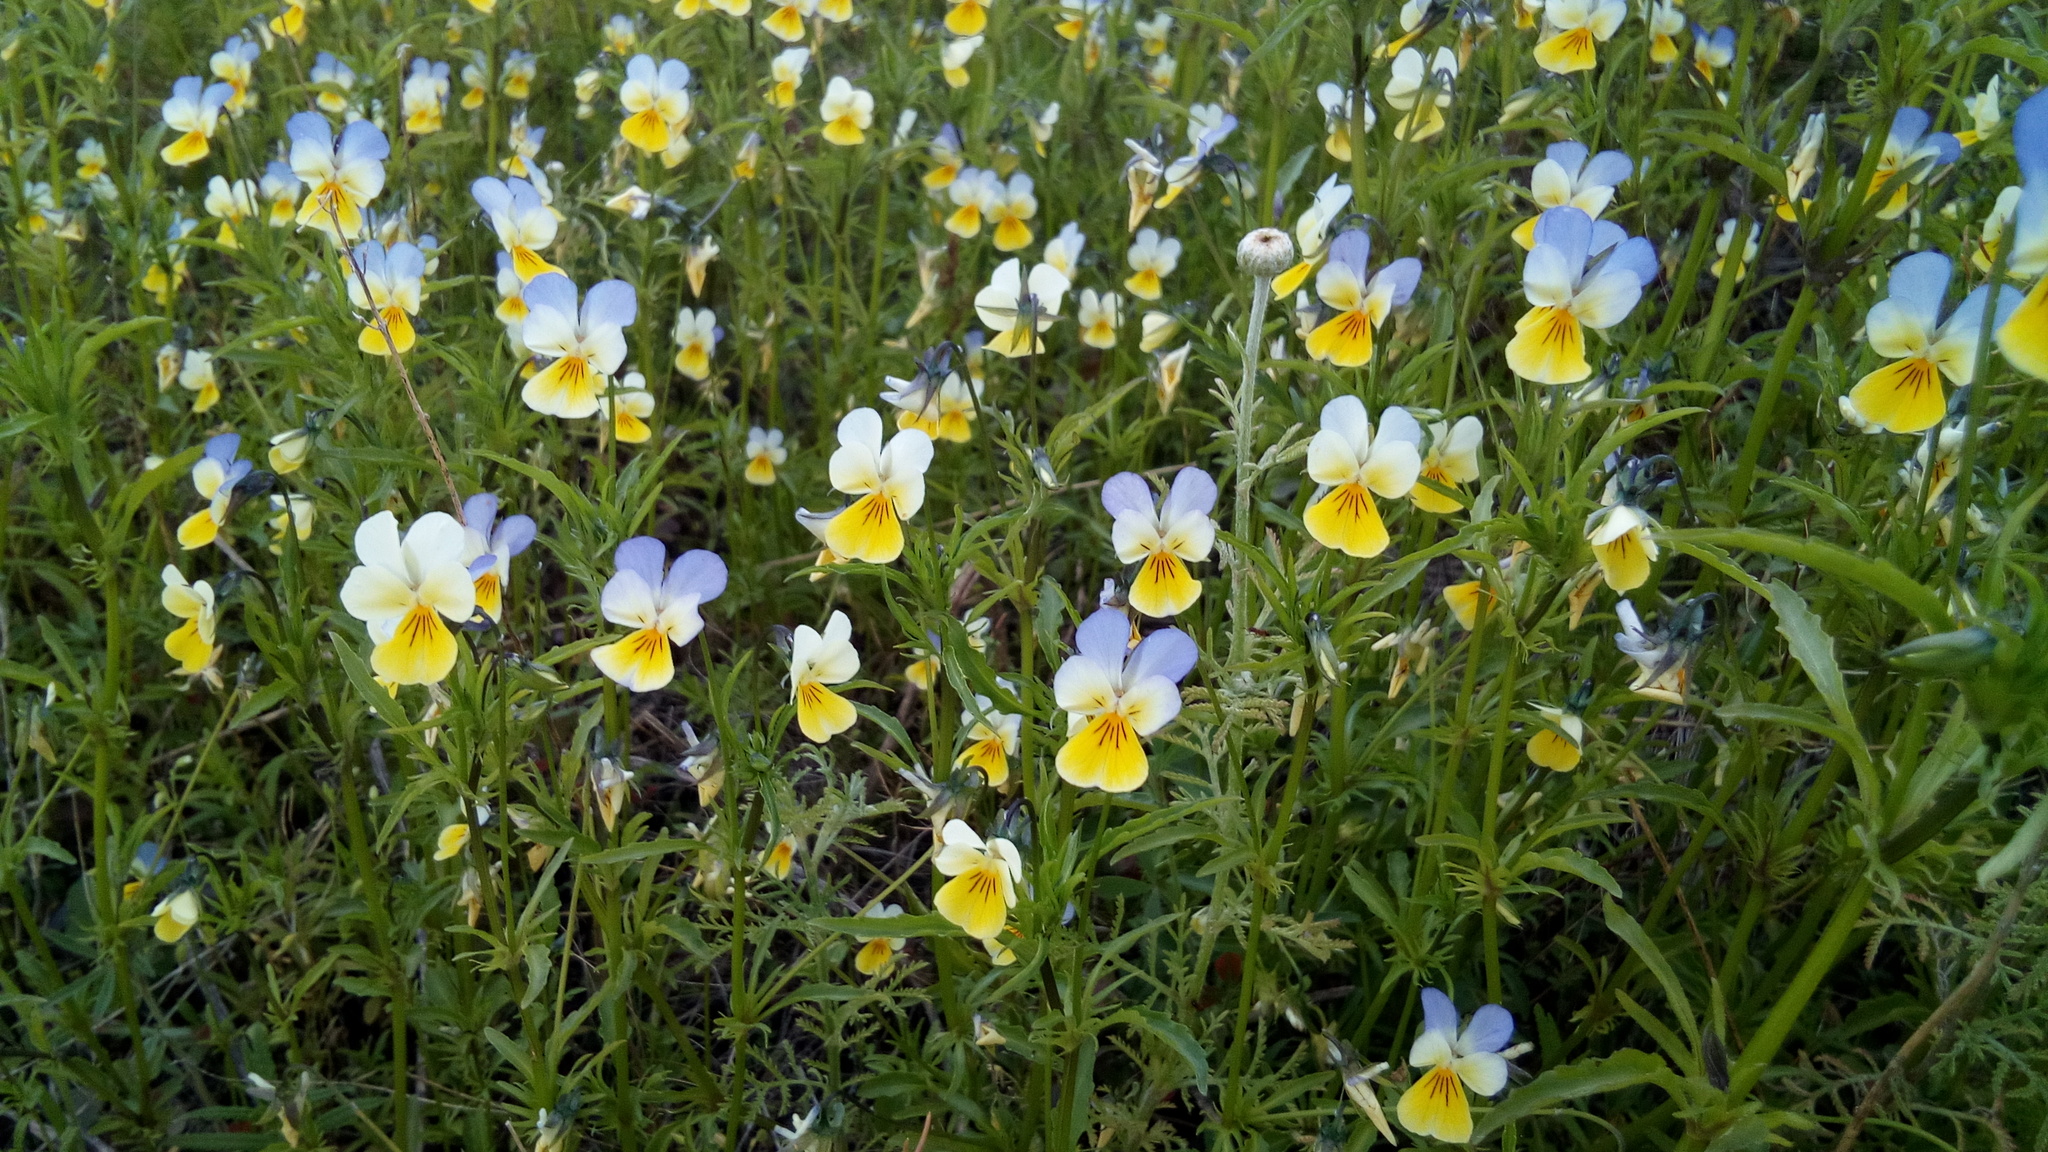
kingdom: Plantae
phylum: Tracheophyta
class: Magnoliopsida
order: Malpighiales
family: Violaceae
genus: Viola
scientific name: Viola tricolor
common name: Pansy
